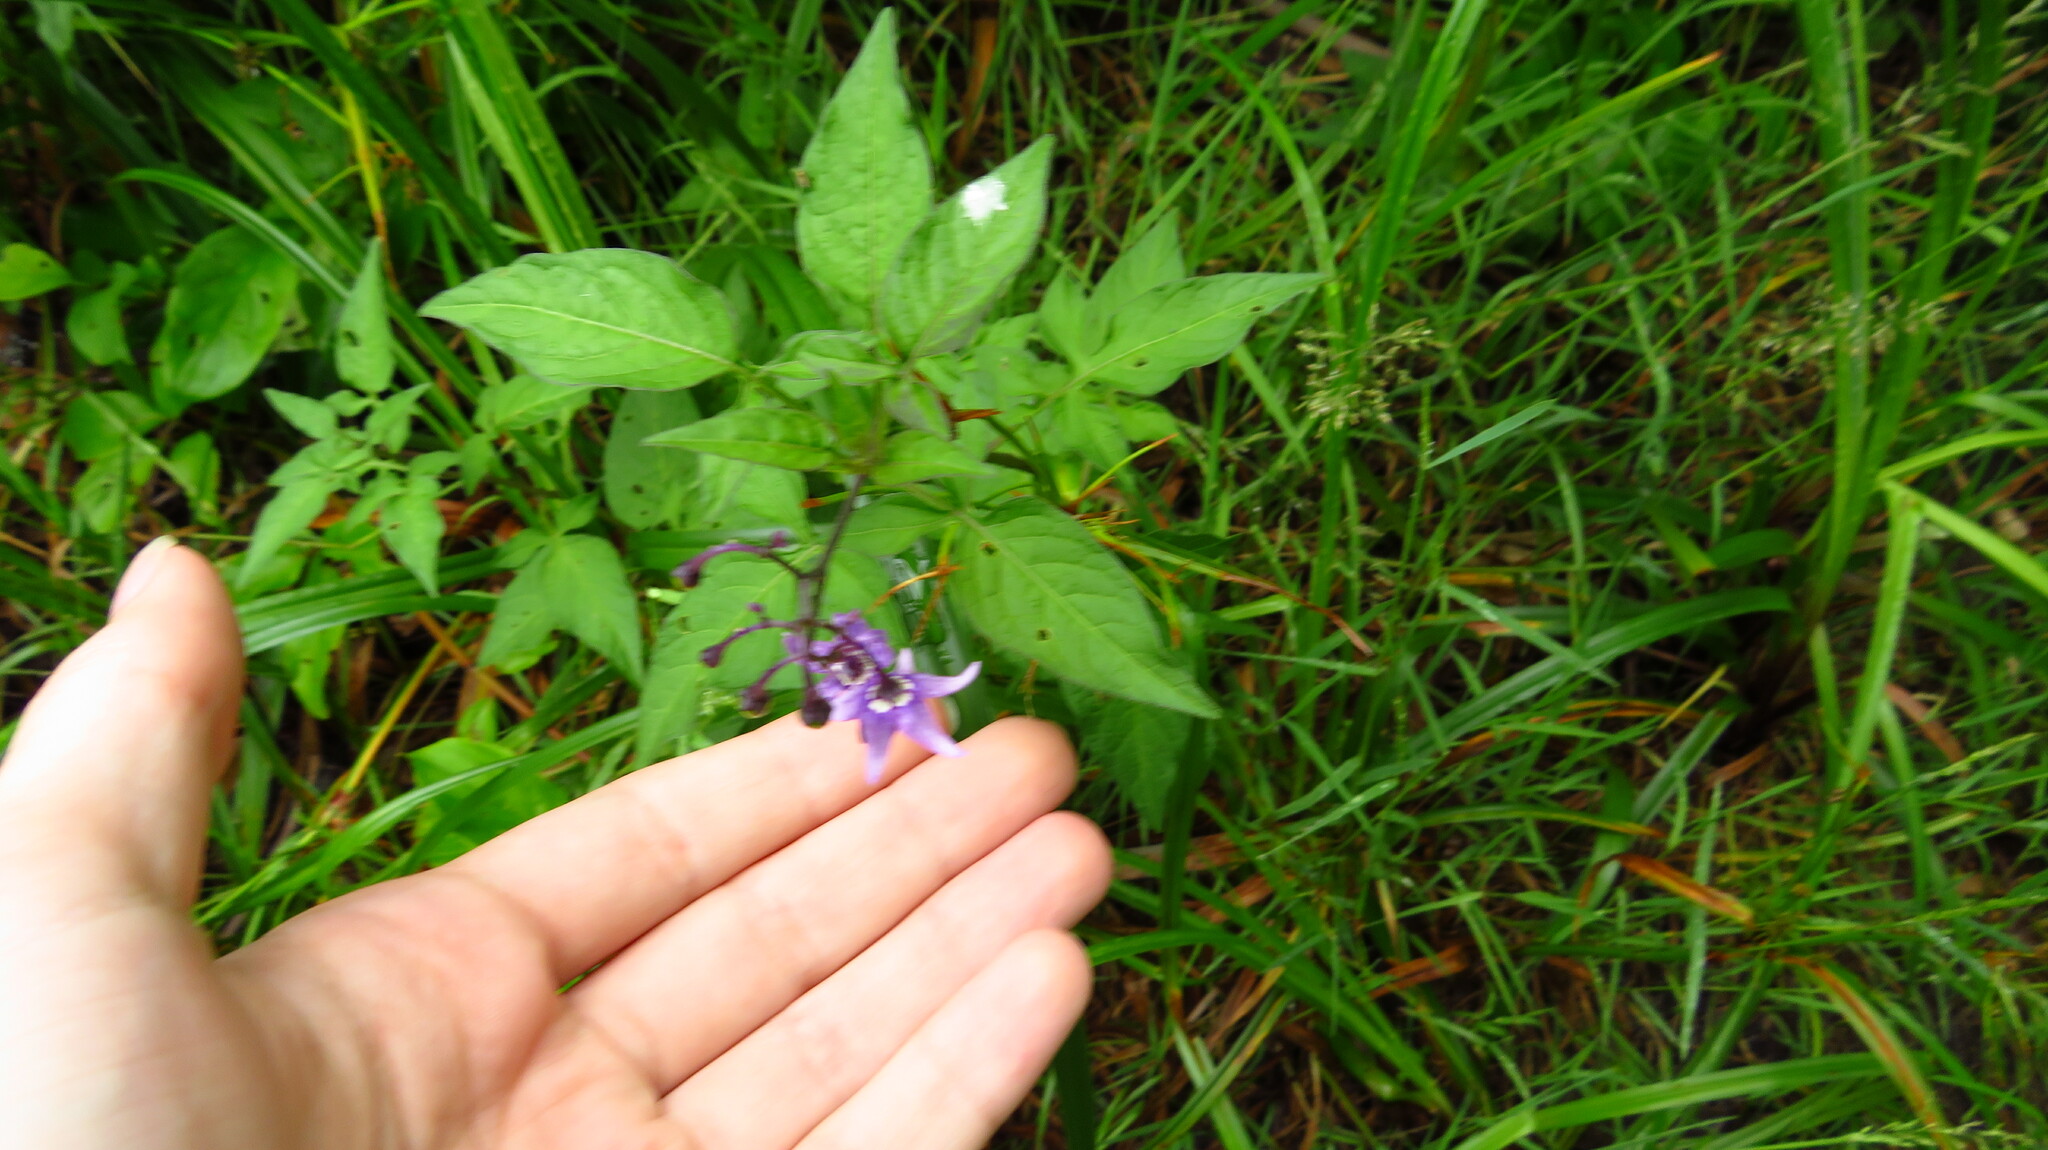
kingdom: Plantae
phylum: Tracheophyta
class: Magnoliopsida
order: Solanales
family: Solanaceae
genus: Solanum
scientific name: Solanum dulcamara
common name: Climbing nightshade
